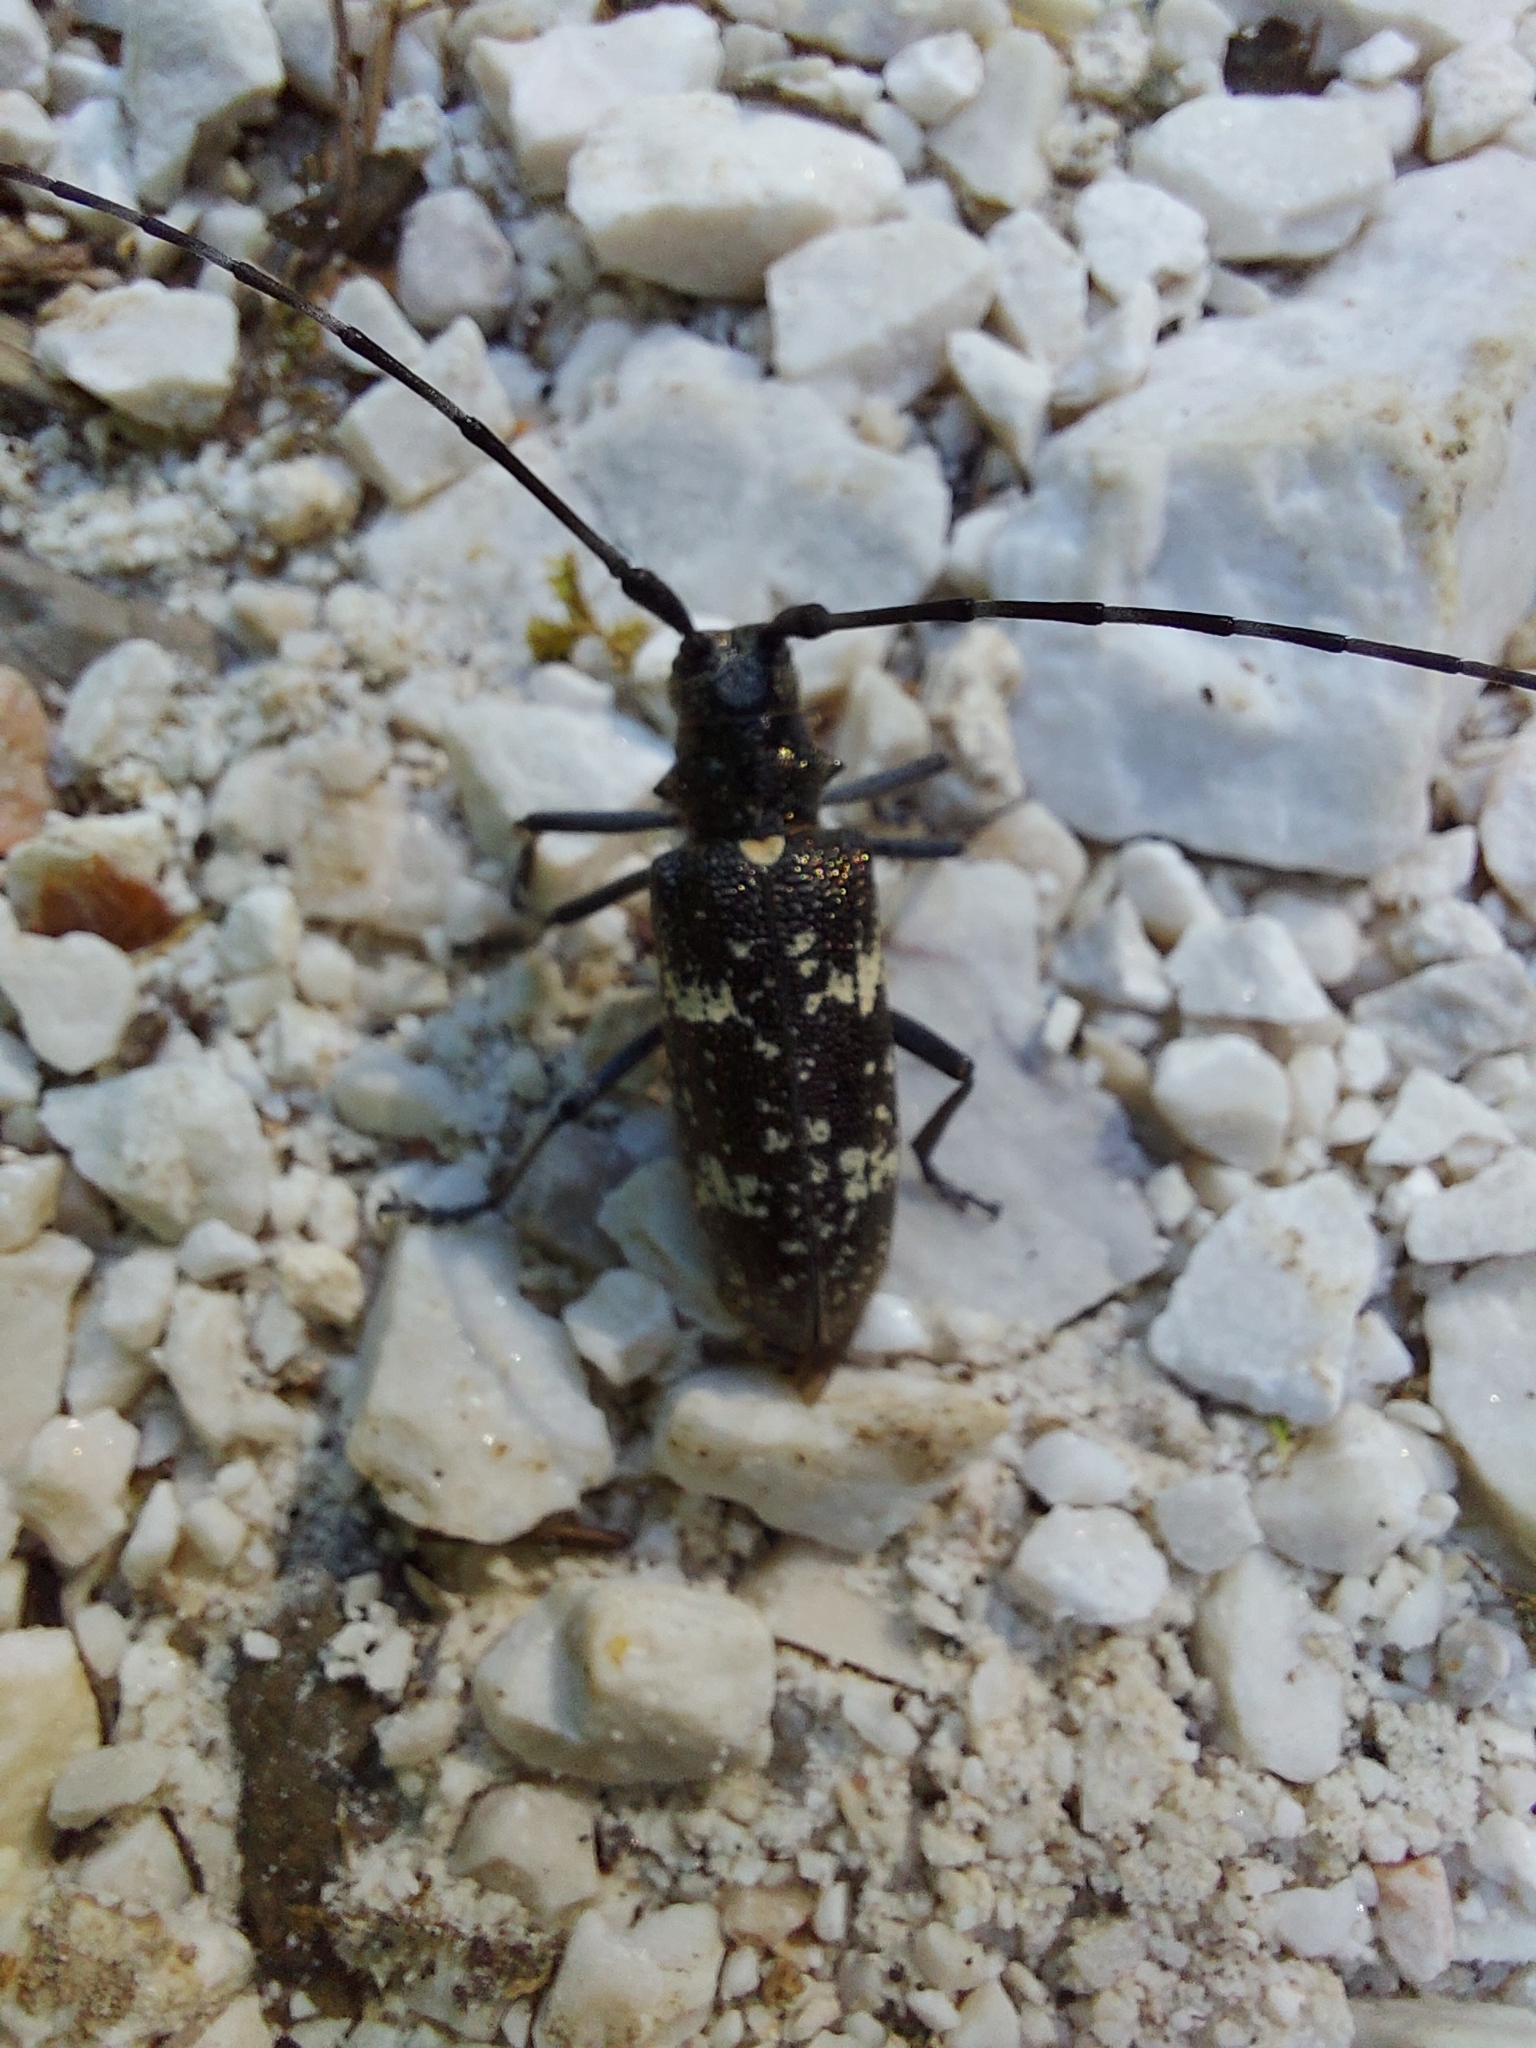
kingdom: Animalia
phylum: Arthropoda
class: Insecta
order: Coleoptera
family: Cerambycidae
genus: Monochamus
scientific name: Monochamus sartor
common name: Pine sawyer
